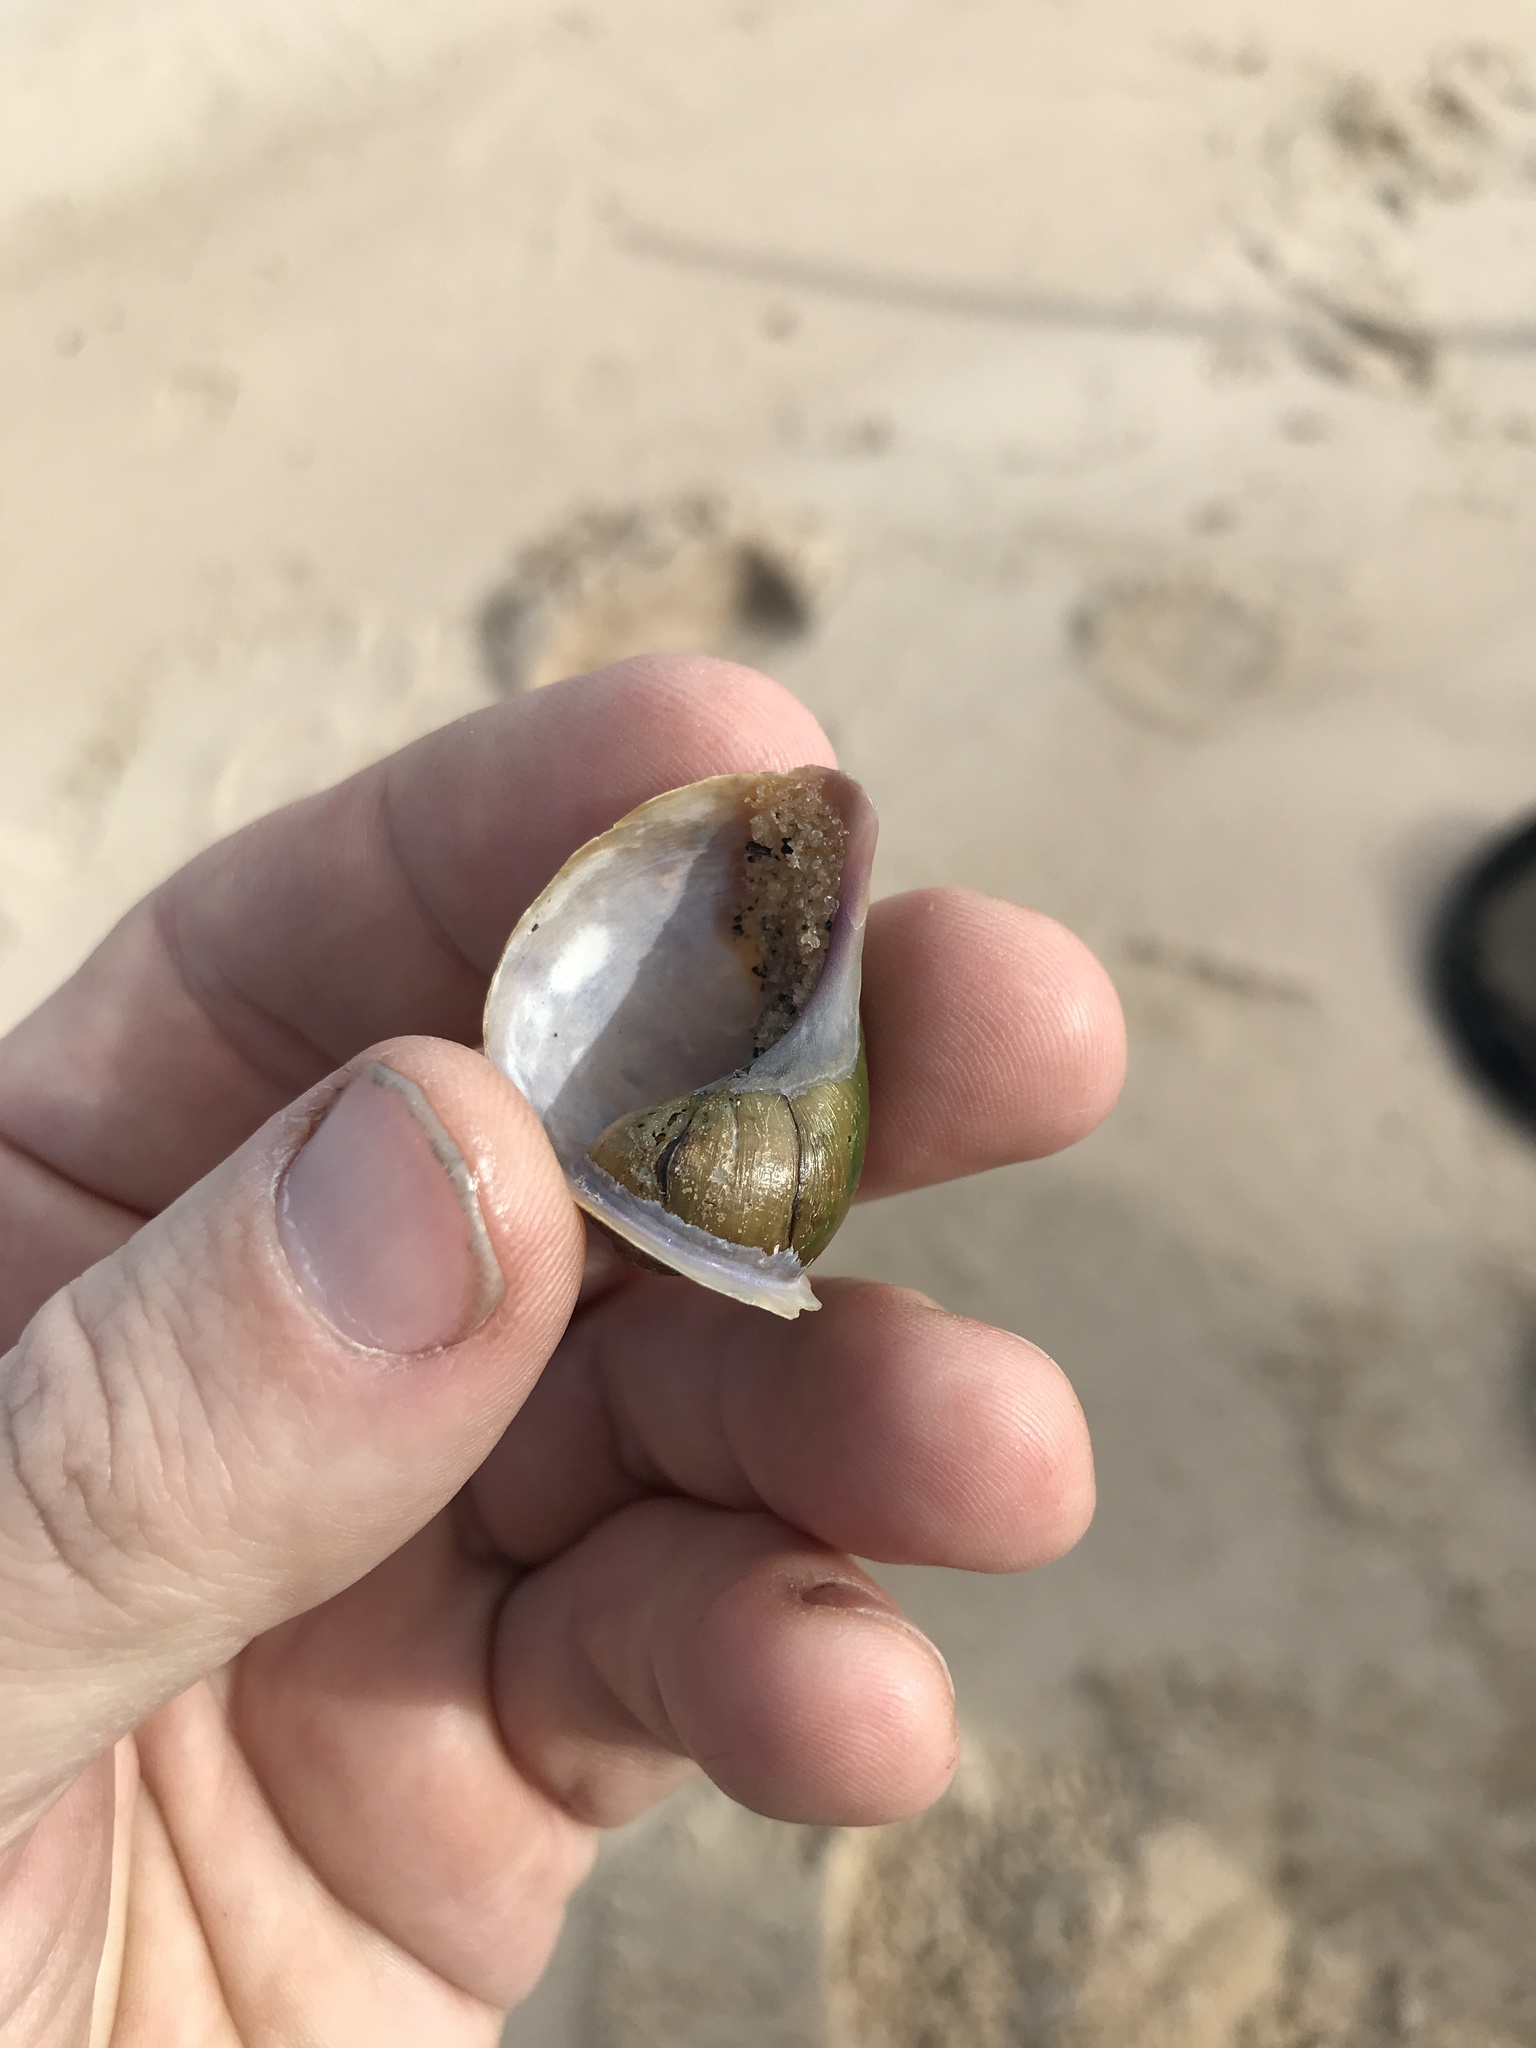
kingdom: Animalia
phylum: Mollusca
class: Gastropoda
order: Architaenioglossa
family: Ampullariidae
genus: Pomacea
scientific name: Pomacea megastoma
